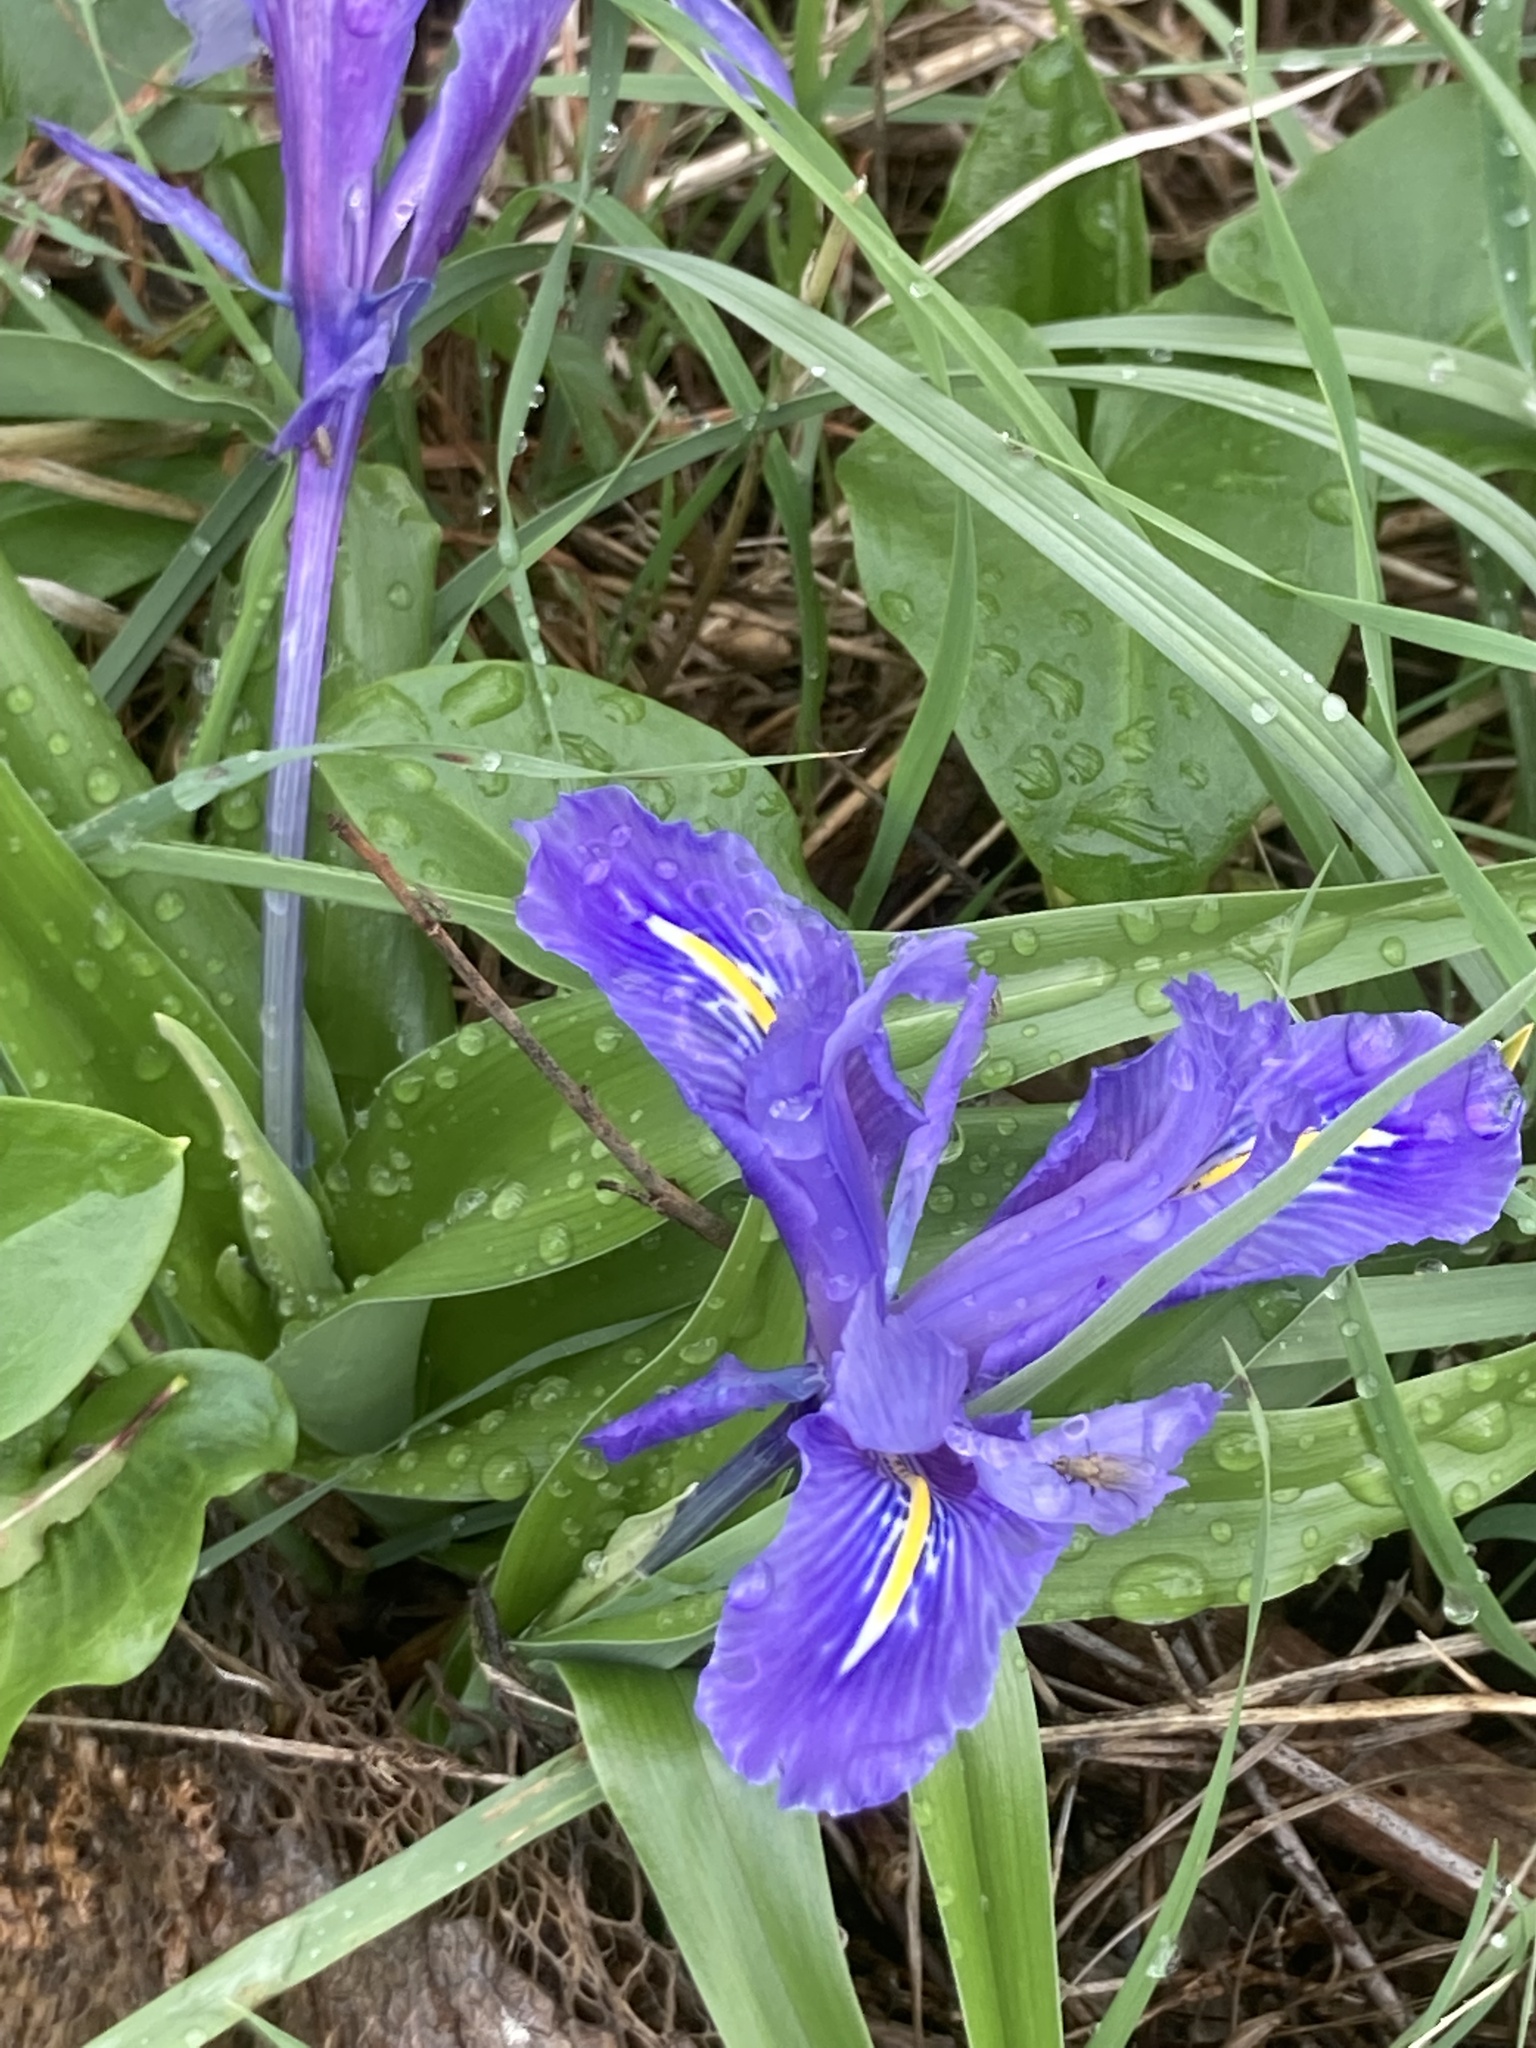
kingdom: Plantae
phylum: Tracheophyta
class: Liliopsida
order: Asparagales
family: Iridaceae
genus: Iris
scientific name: Iris planifolia
